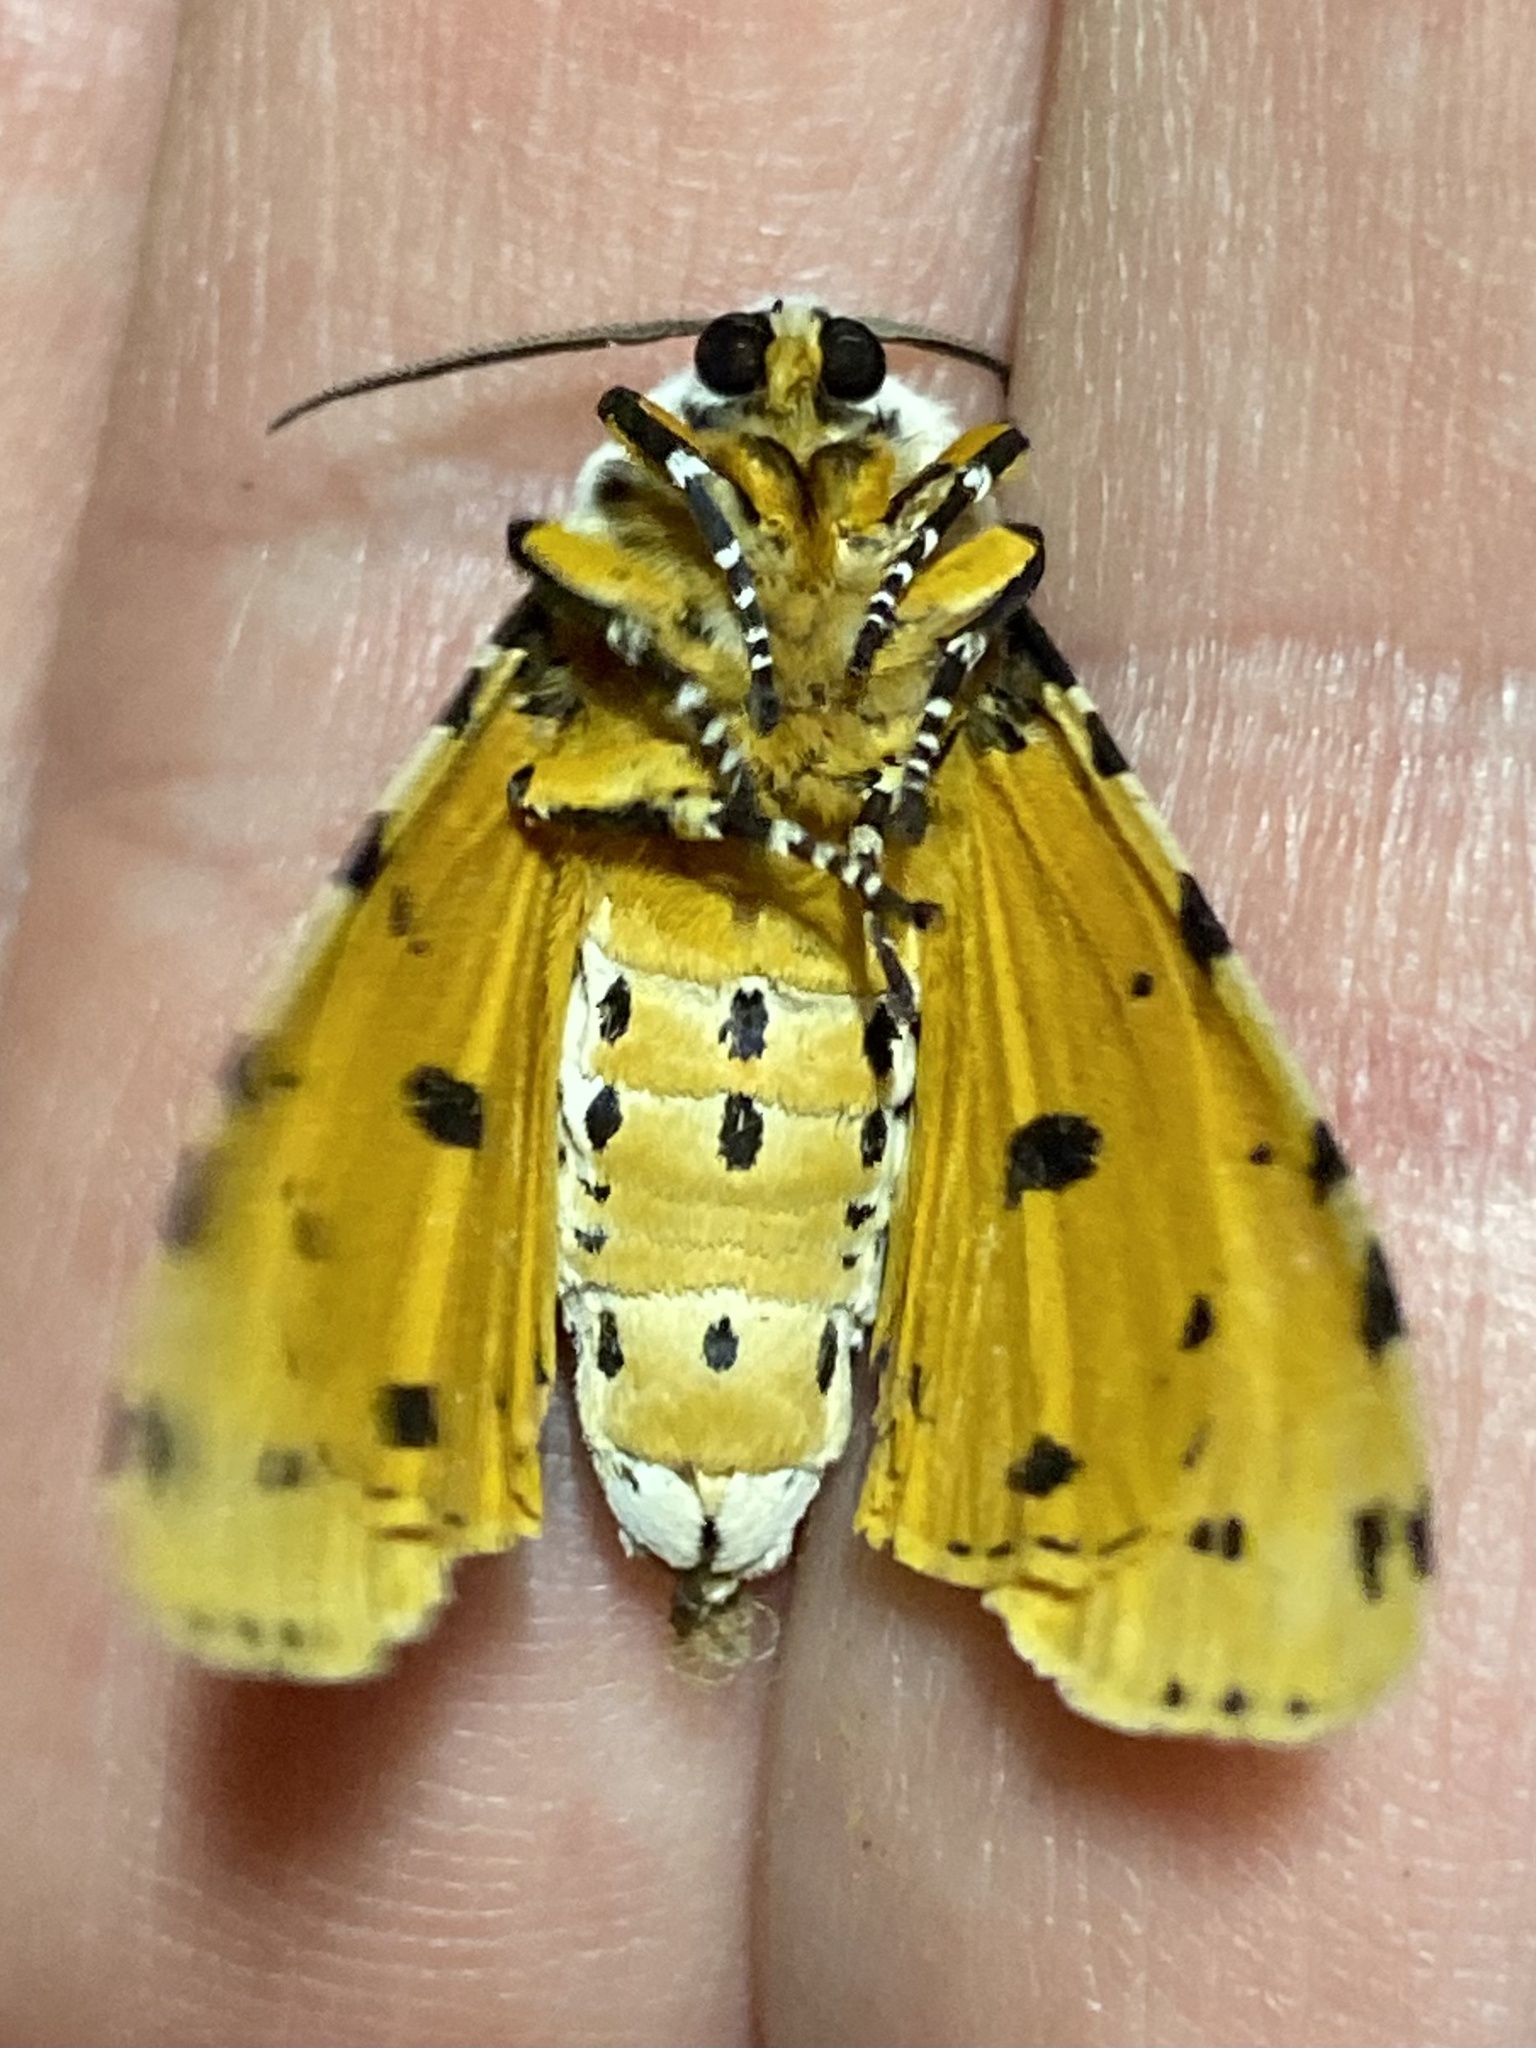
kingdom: Animalia
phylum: Arthropoda
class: Insecta
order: Lepidoptera
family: Erebidae
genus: Estigmene
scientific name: Estigmene acrea
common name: Salt marsh moth
